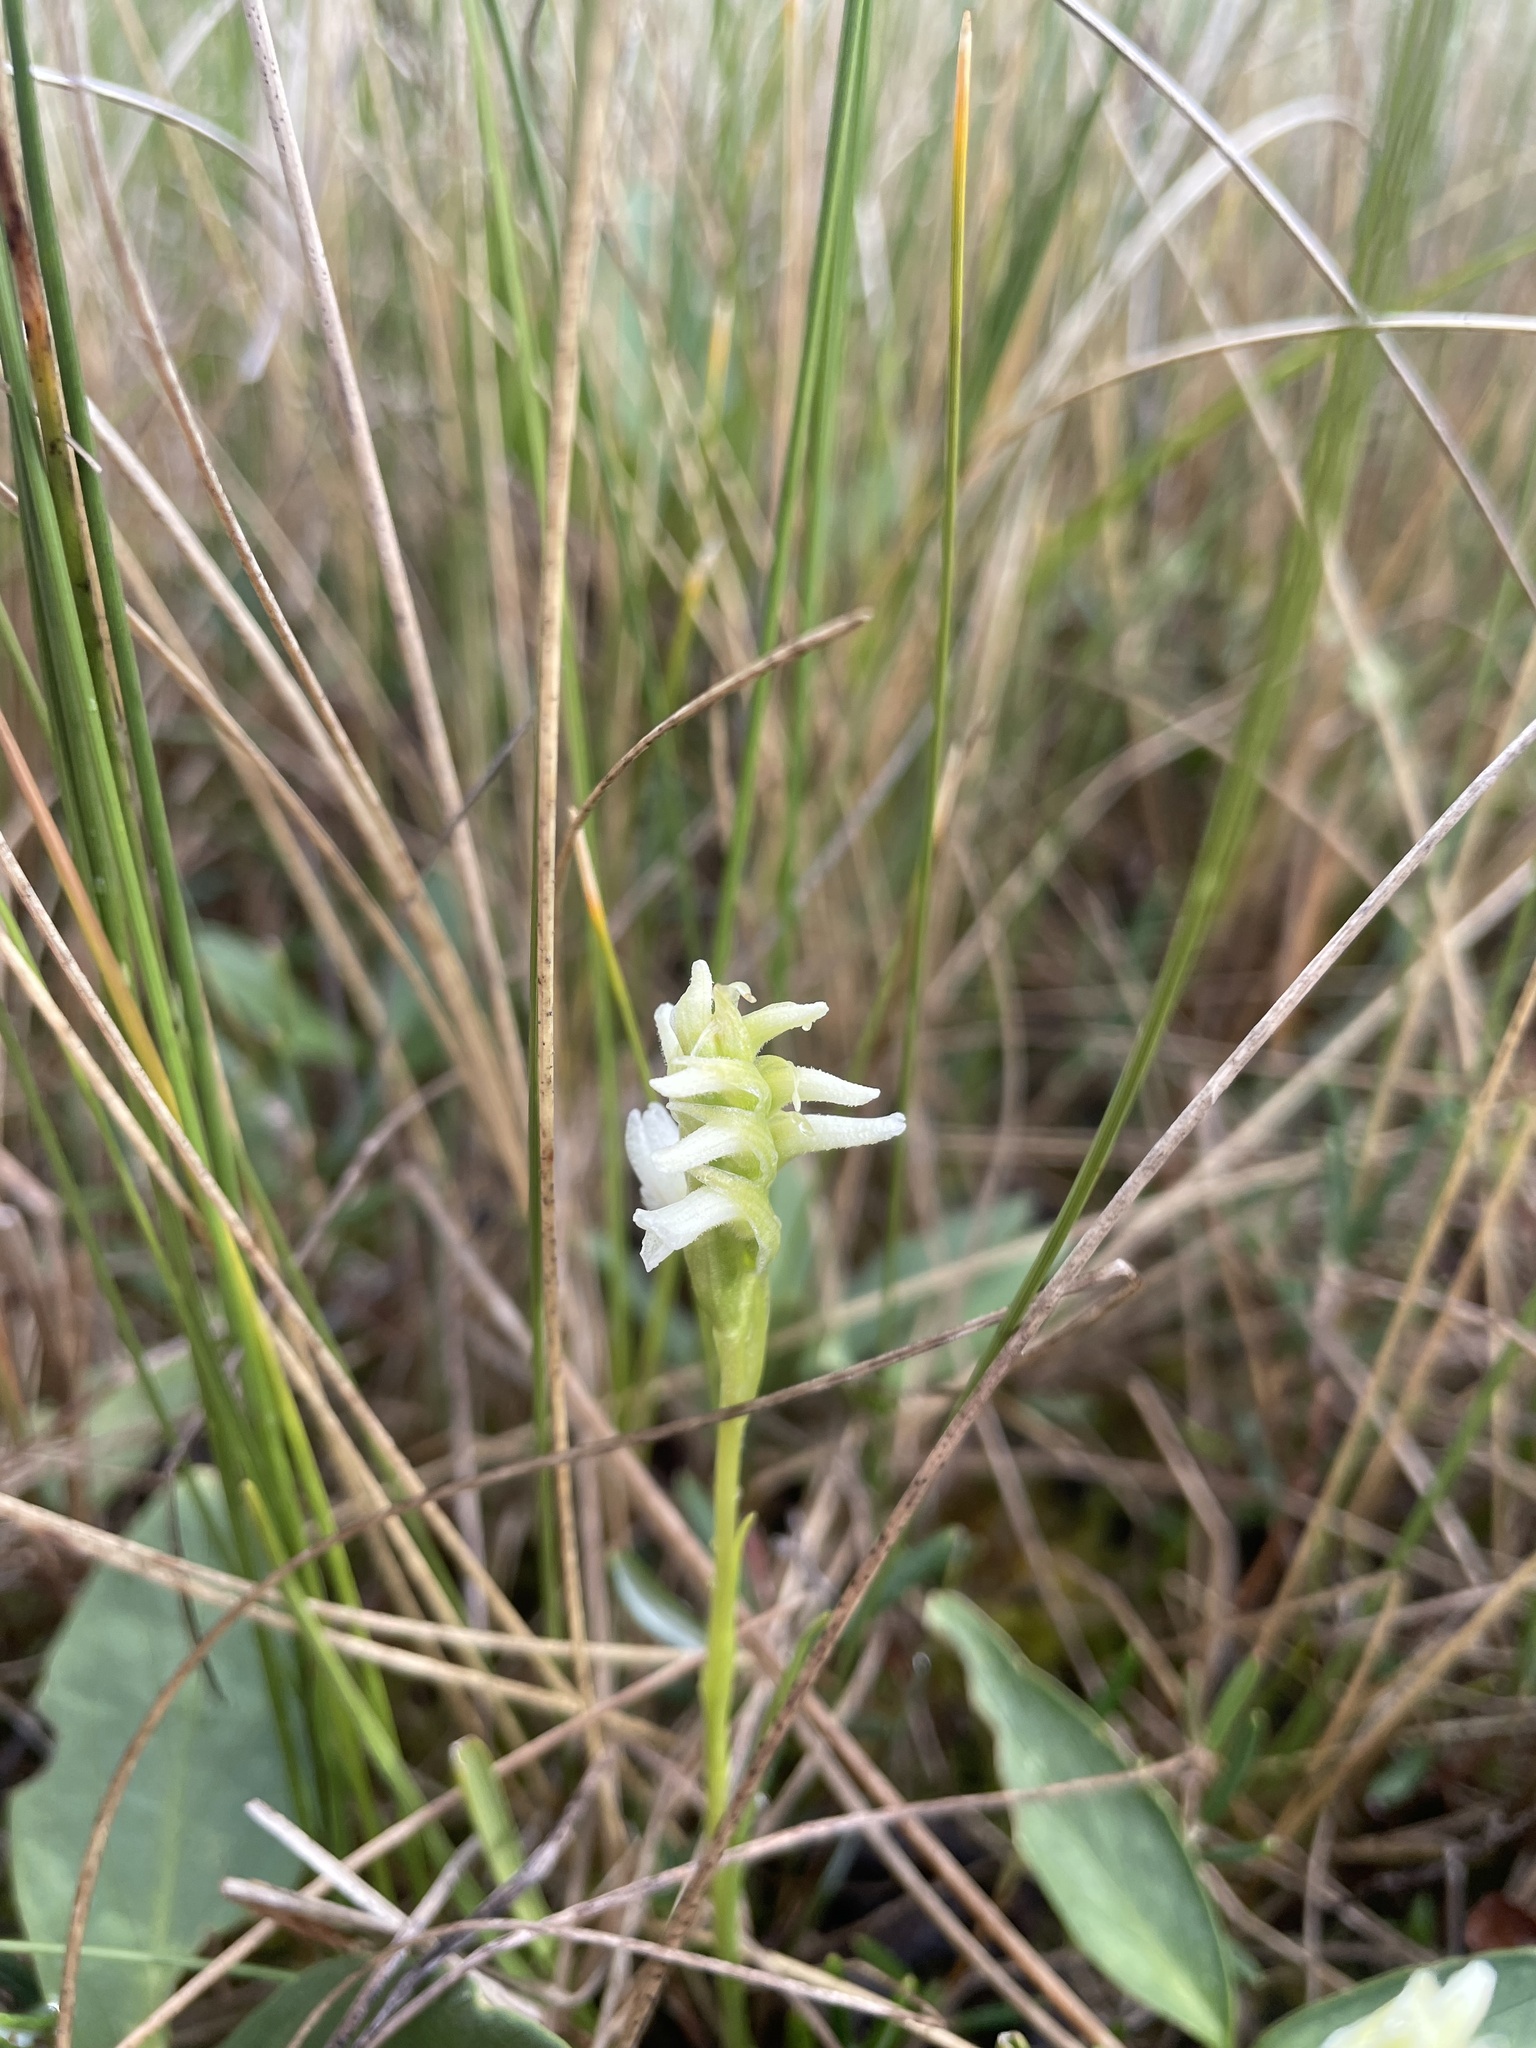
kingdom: Plantae
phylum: Tracheophyta
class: Liliopsida
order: Asparagales
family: Orchidaceae
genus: Spiranthes
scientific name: Spiranthes romanzoffiana
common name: Irish lady's-tresses
